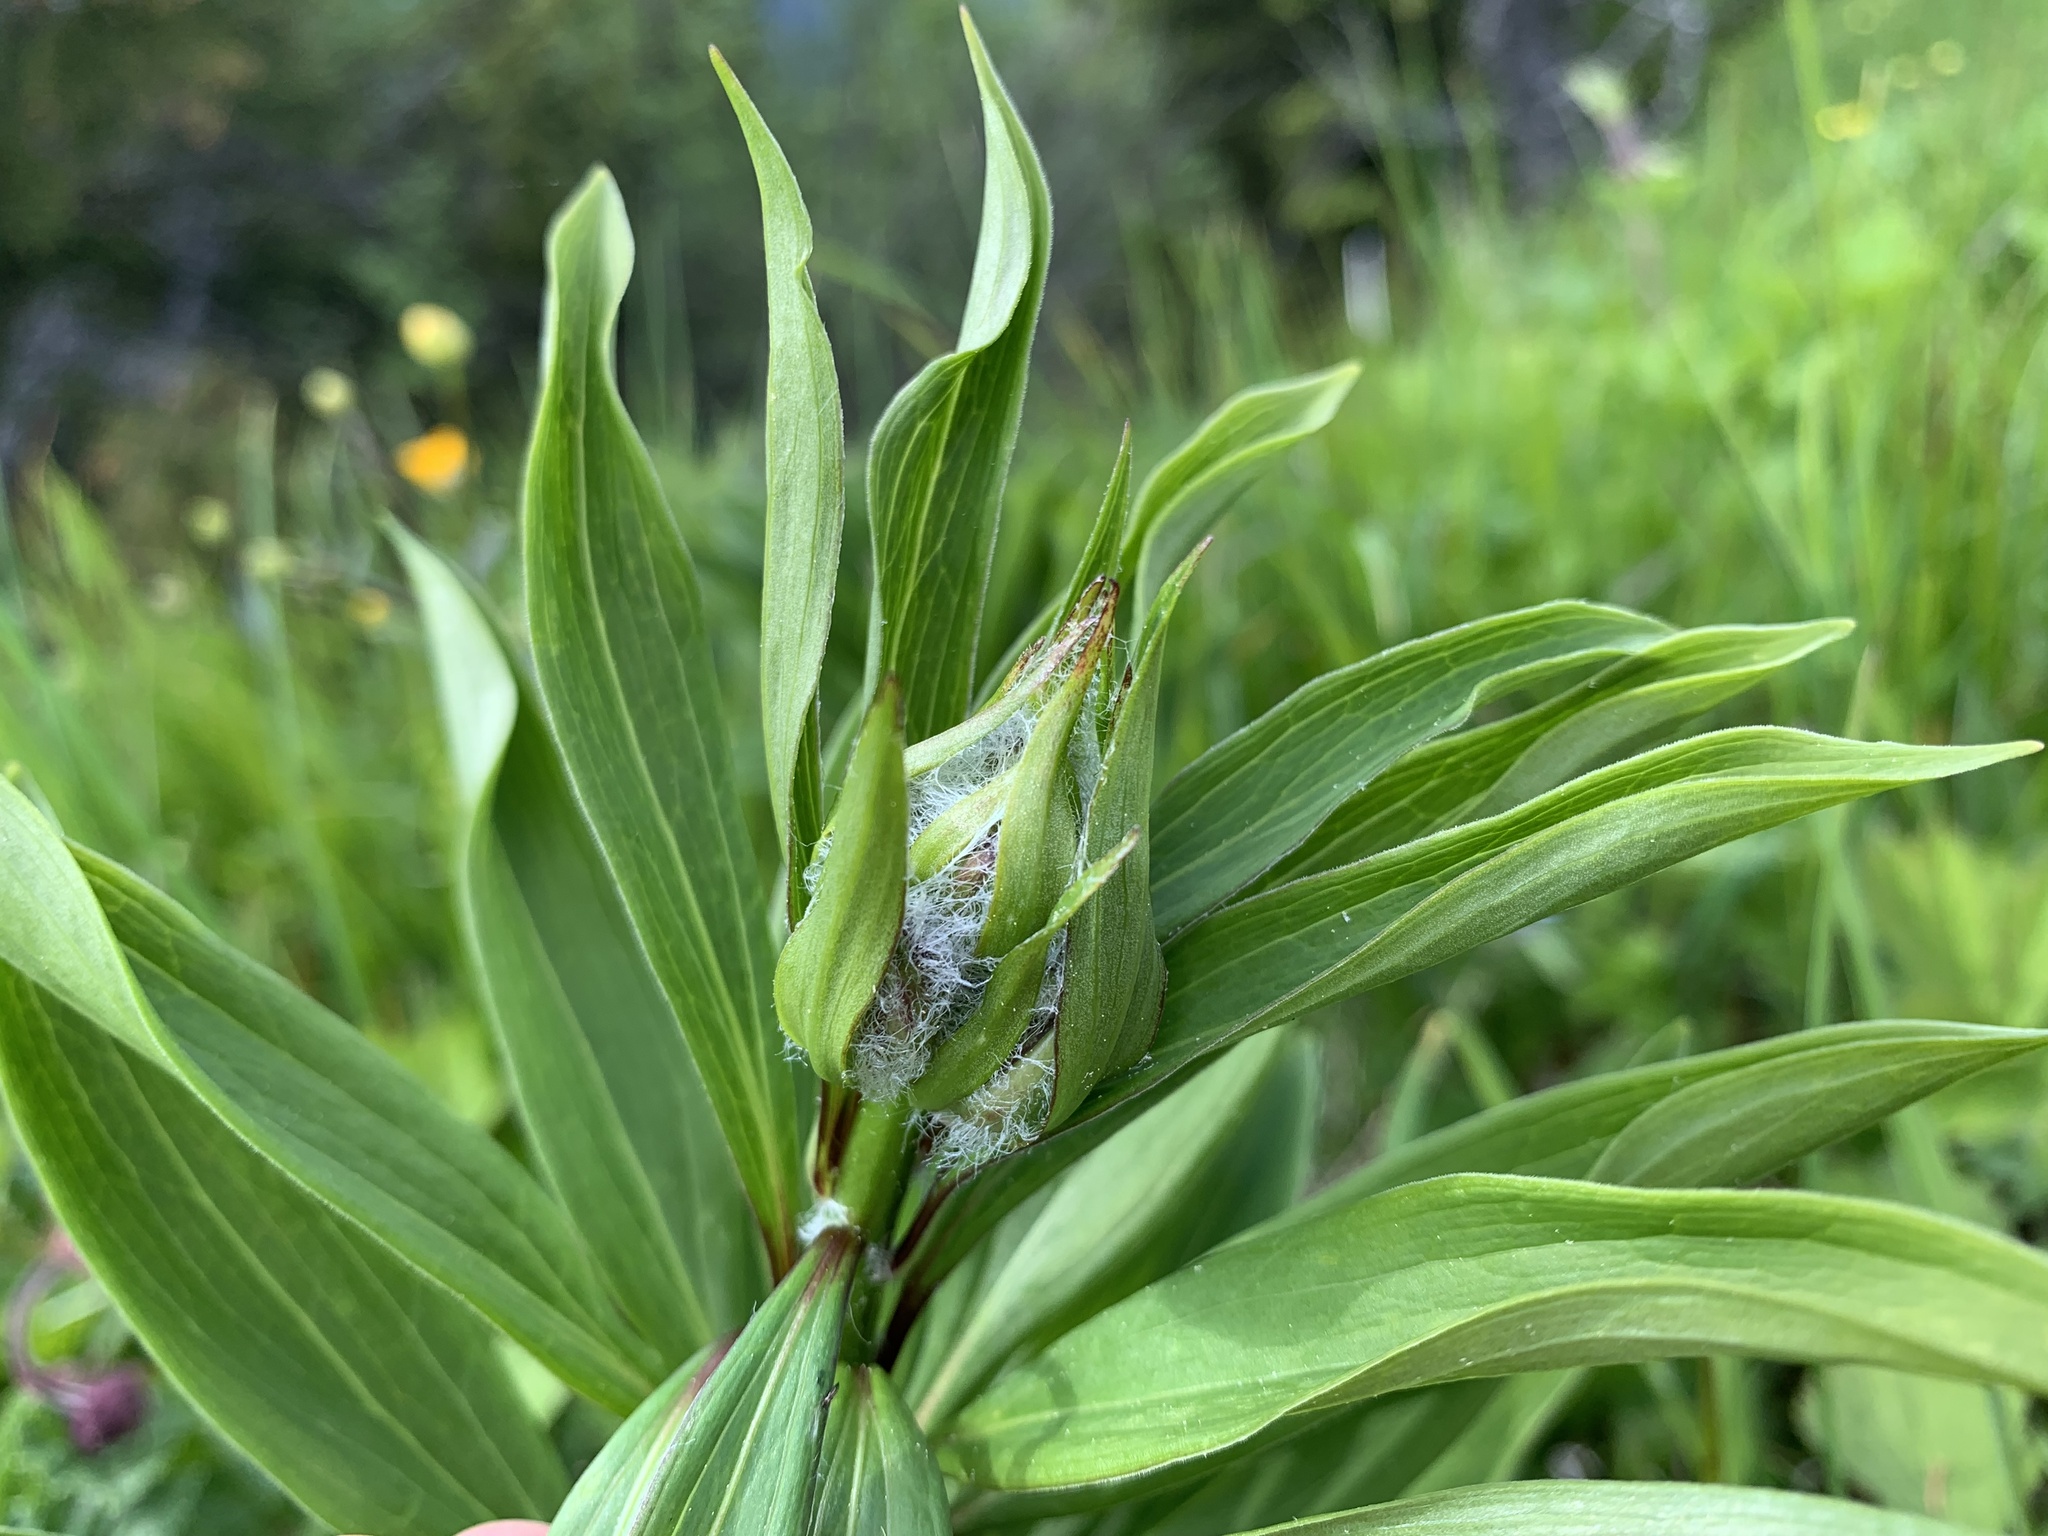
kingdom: Plantae
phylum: Tracheophyta
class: Liliopsida
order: Liliales
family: Liliaceae
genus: Lilium
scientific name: Lilium martagon
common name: Martagon lily
